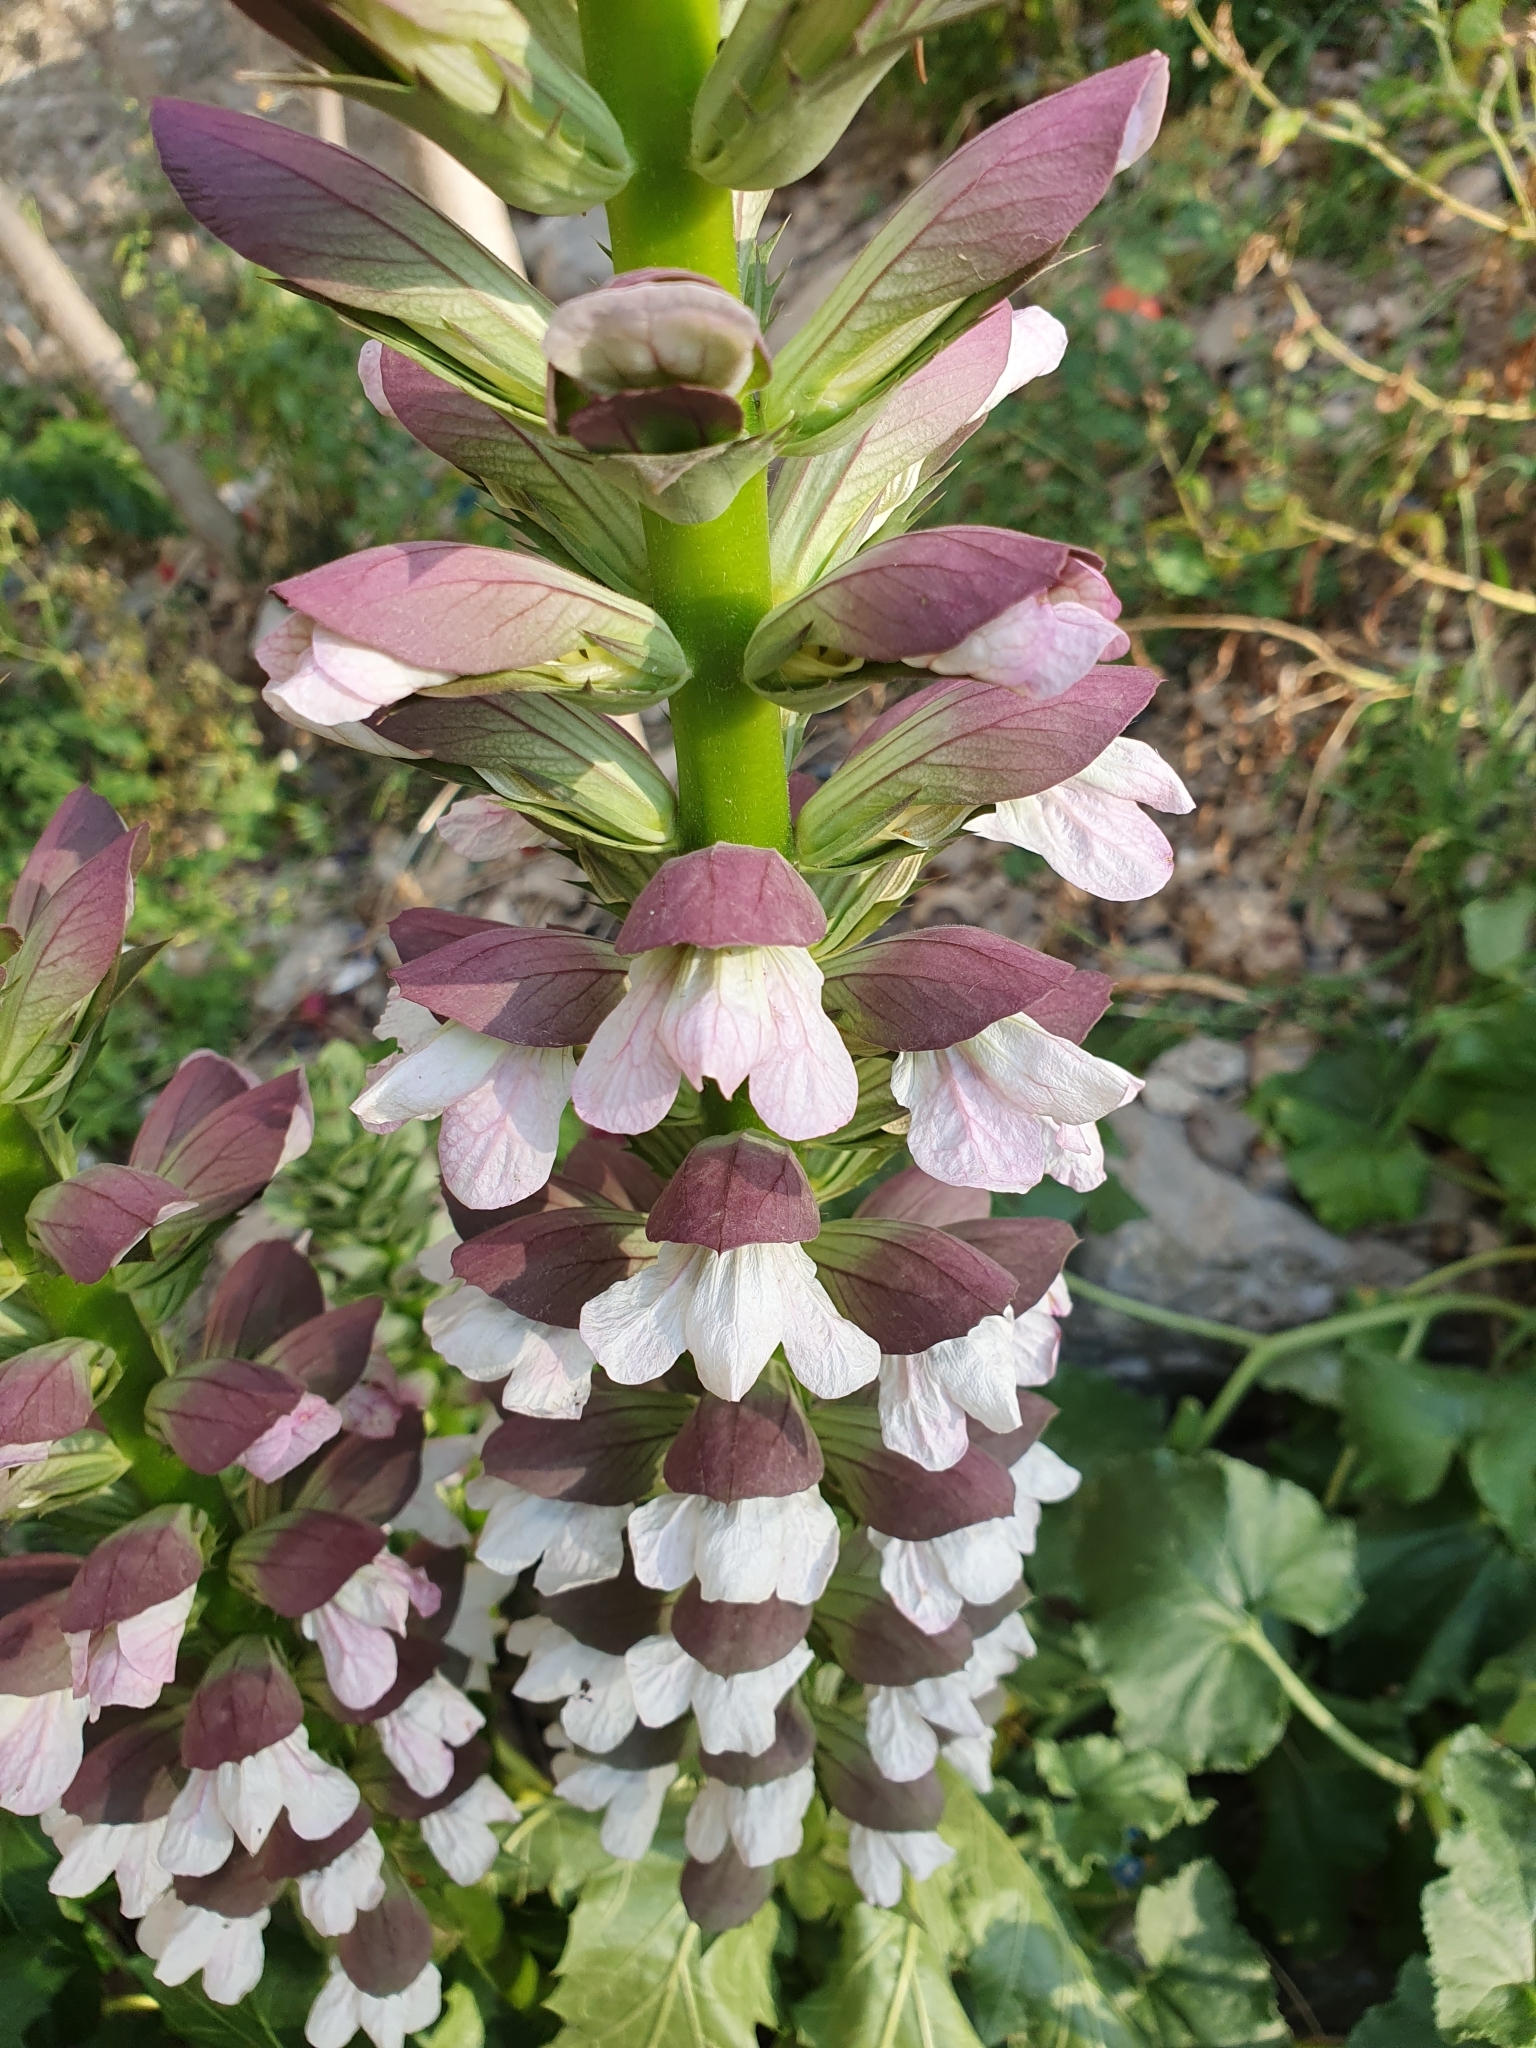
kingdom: Plantae
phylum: Tracheophyta
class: Magnoliopsida
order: Lamiales
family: Acanthaceae
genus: Acanthus
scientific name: Acanthus mollis
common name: Bear's-breech
